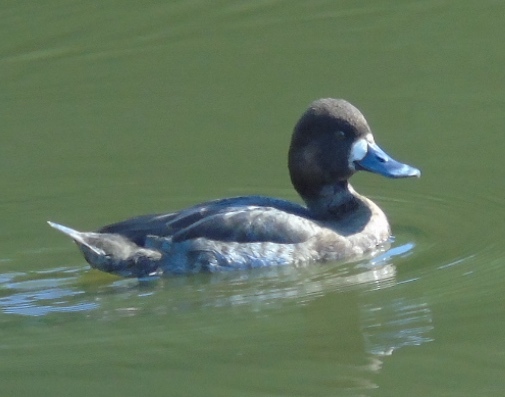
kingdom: Animalia
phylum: Chordata
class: Aves
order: Anseriformes
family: Anatidae
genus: Aythya
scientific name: Aythya affinis
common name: Lesser scaup
